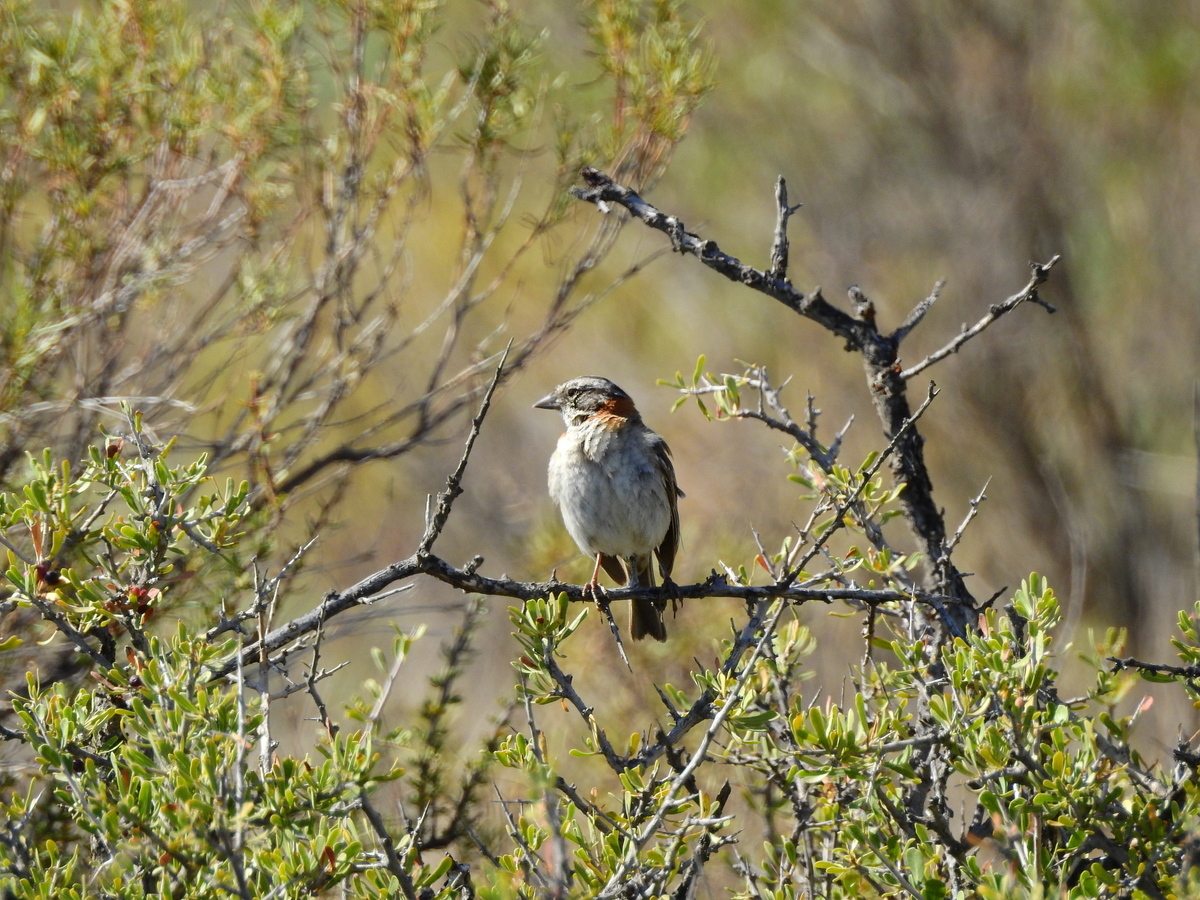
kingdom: Animalia
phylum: Chordata
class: Aves
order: Passeriformes
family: Passerellidae
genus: Zonotrichia
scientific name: Zonotrichia capensis
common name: Rufous-collared sparrow
